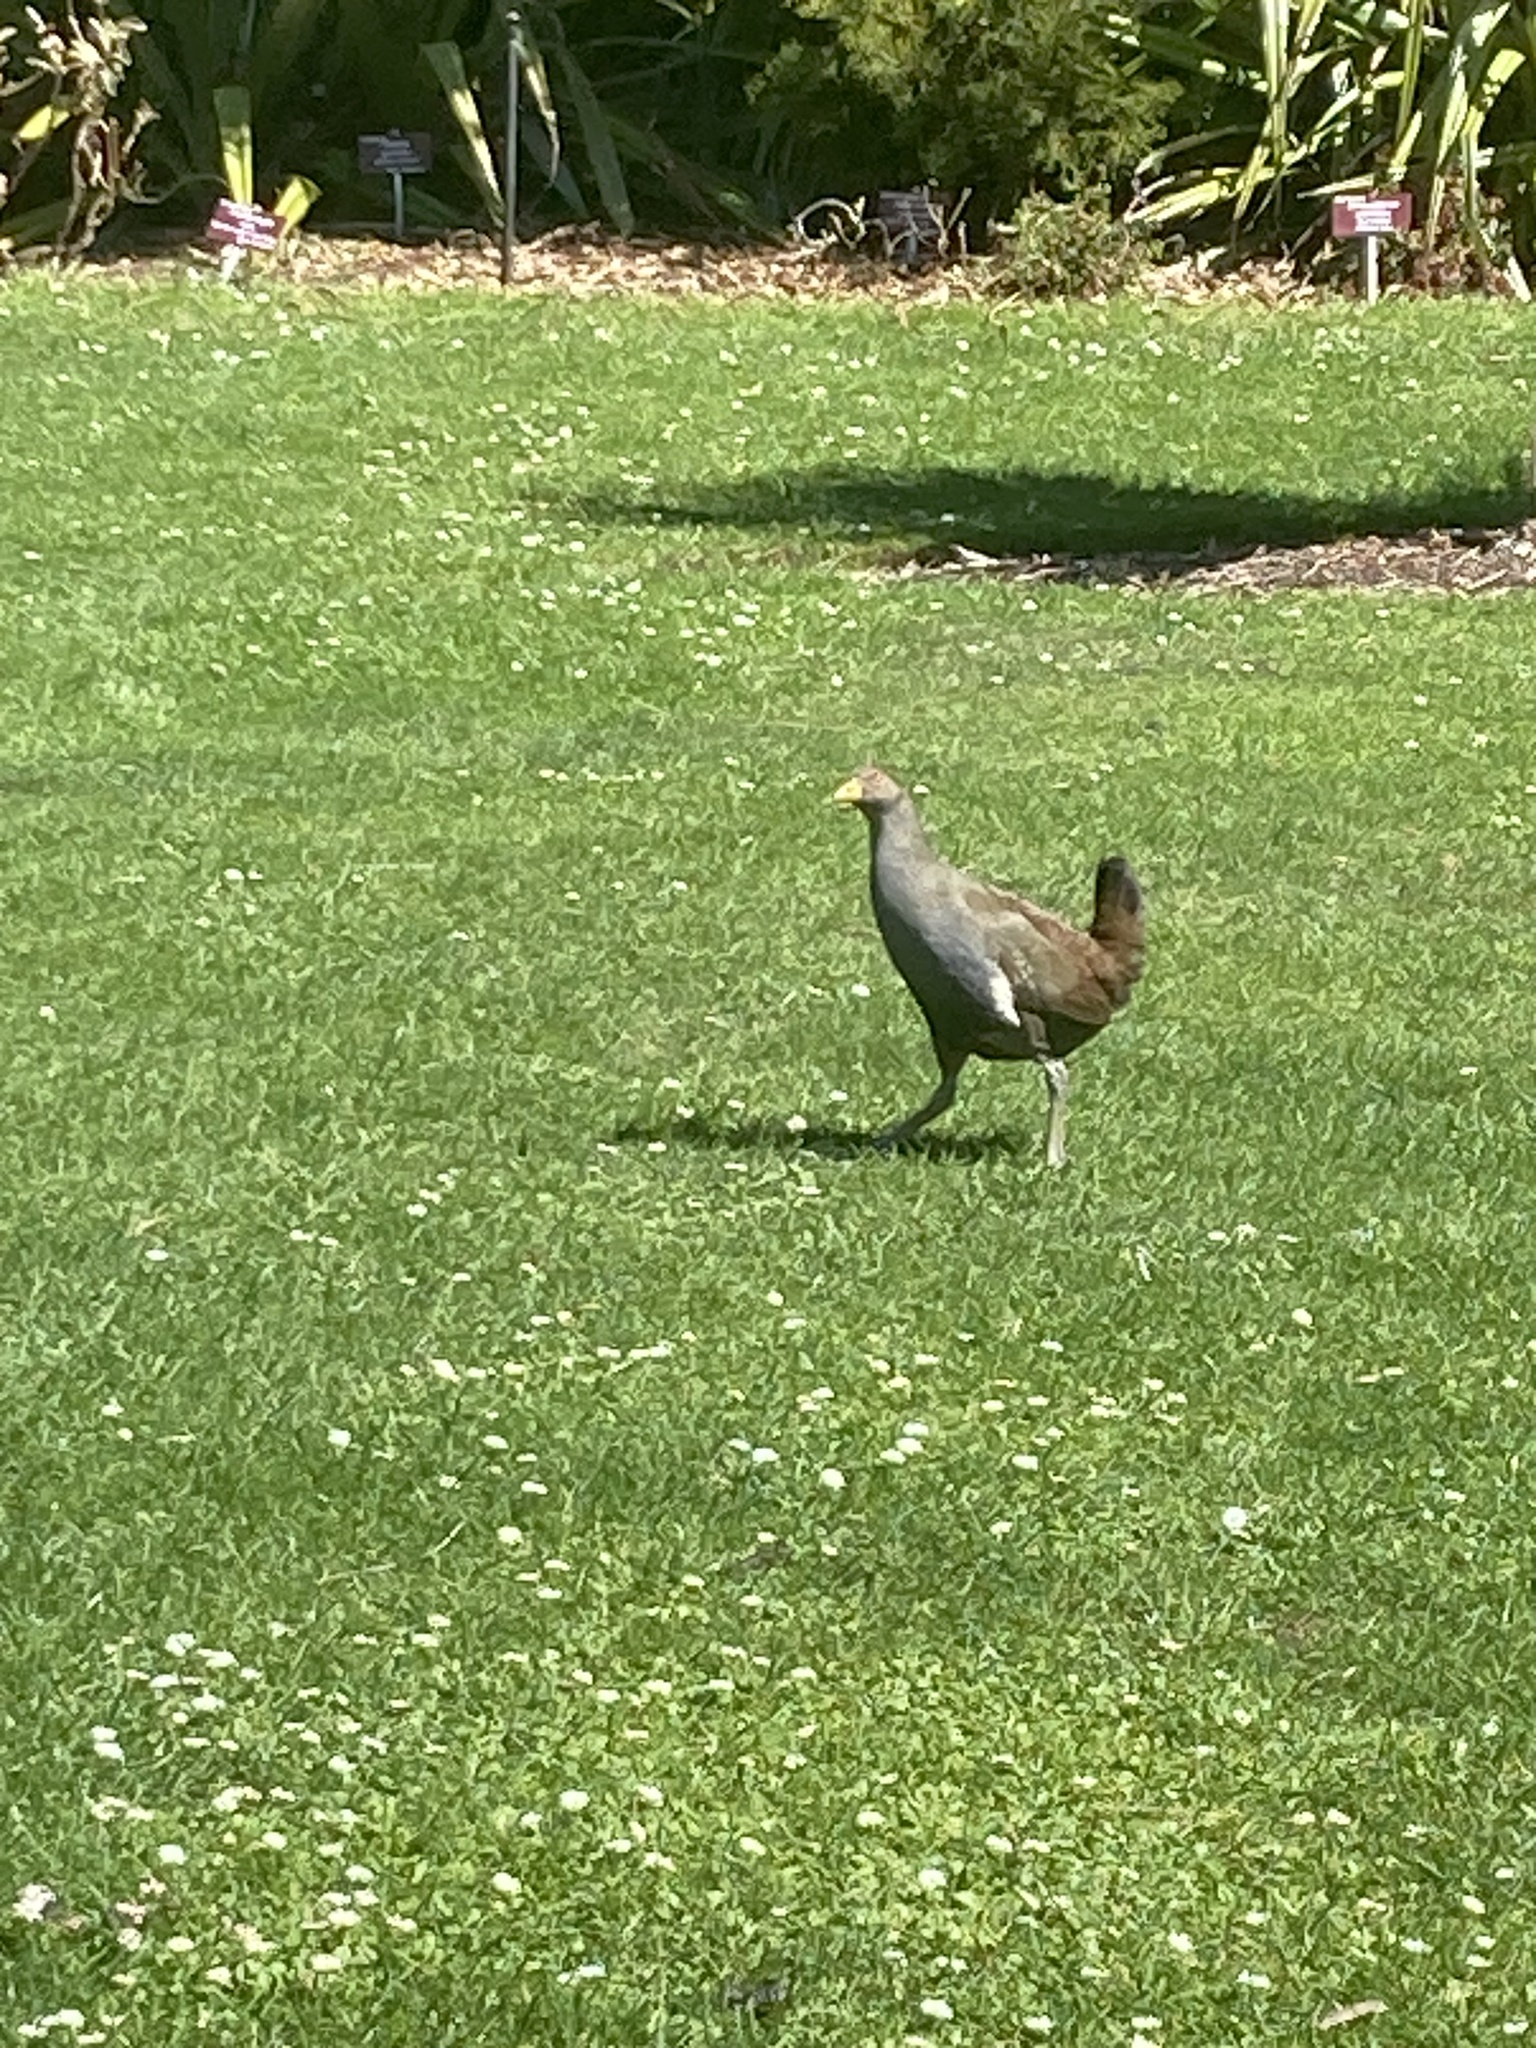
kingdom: Animalia
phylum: Chordata
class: Aves
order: Gruiformes
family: Rallidae
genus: Gallinula
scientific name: Gallinula mortierii
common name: Tasmanian nativehen
